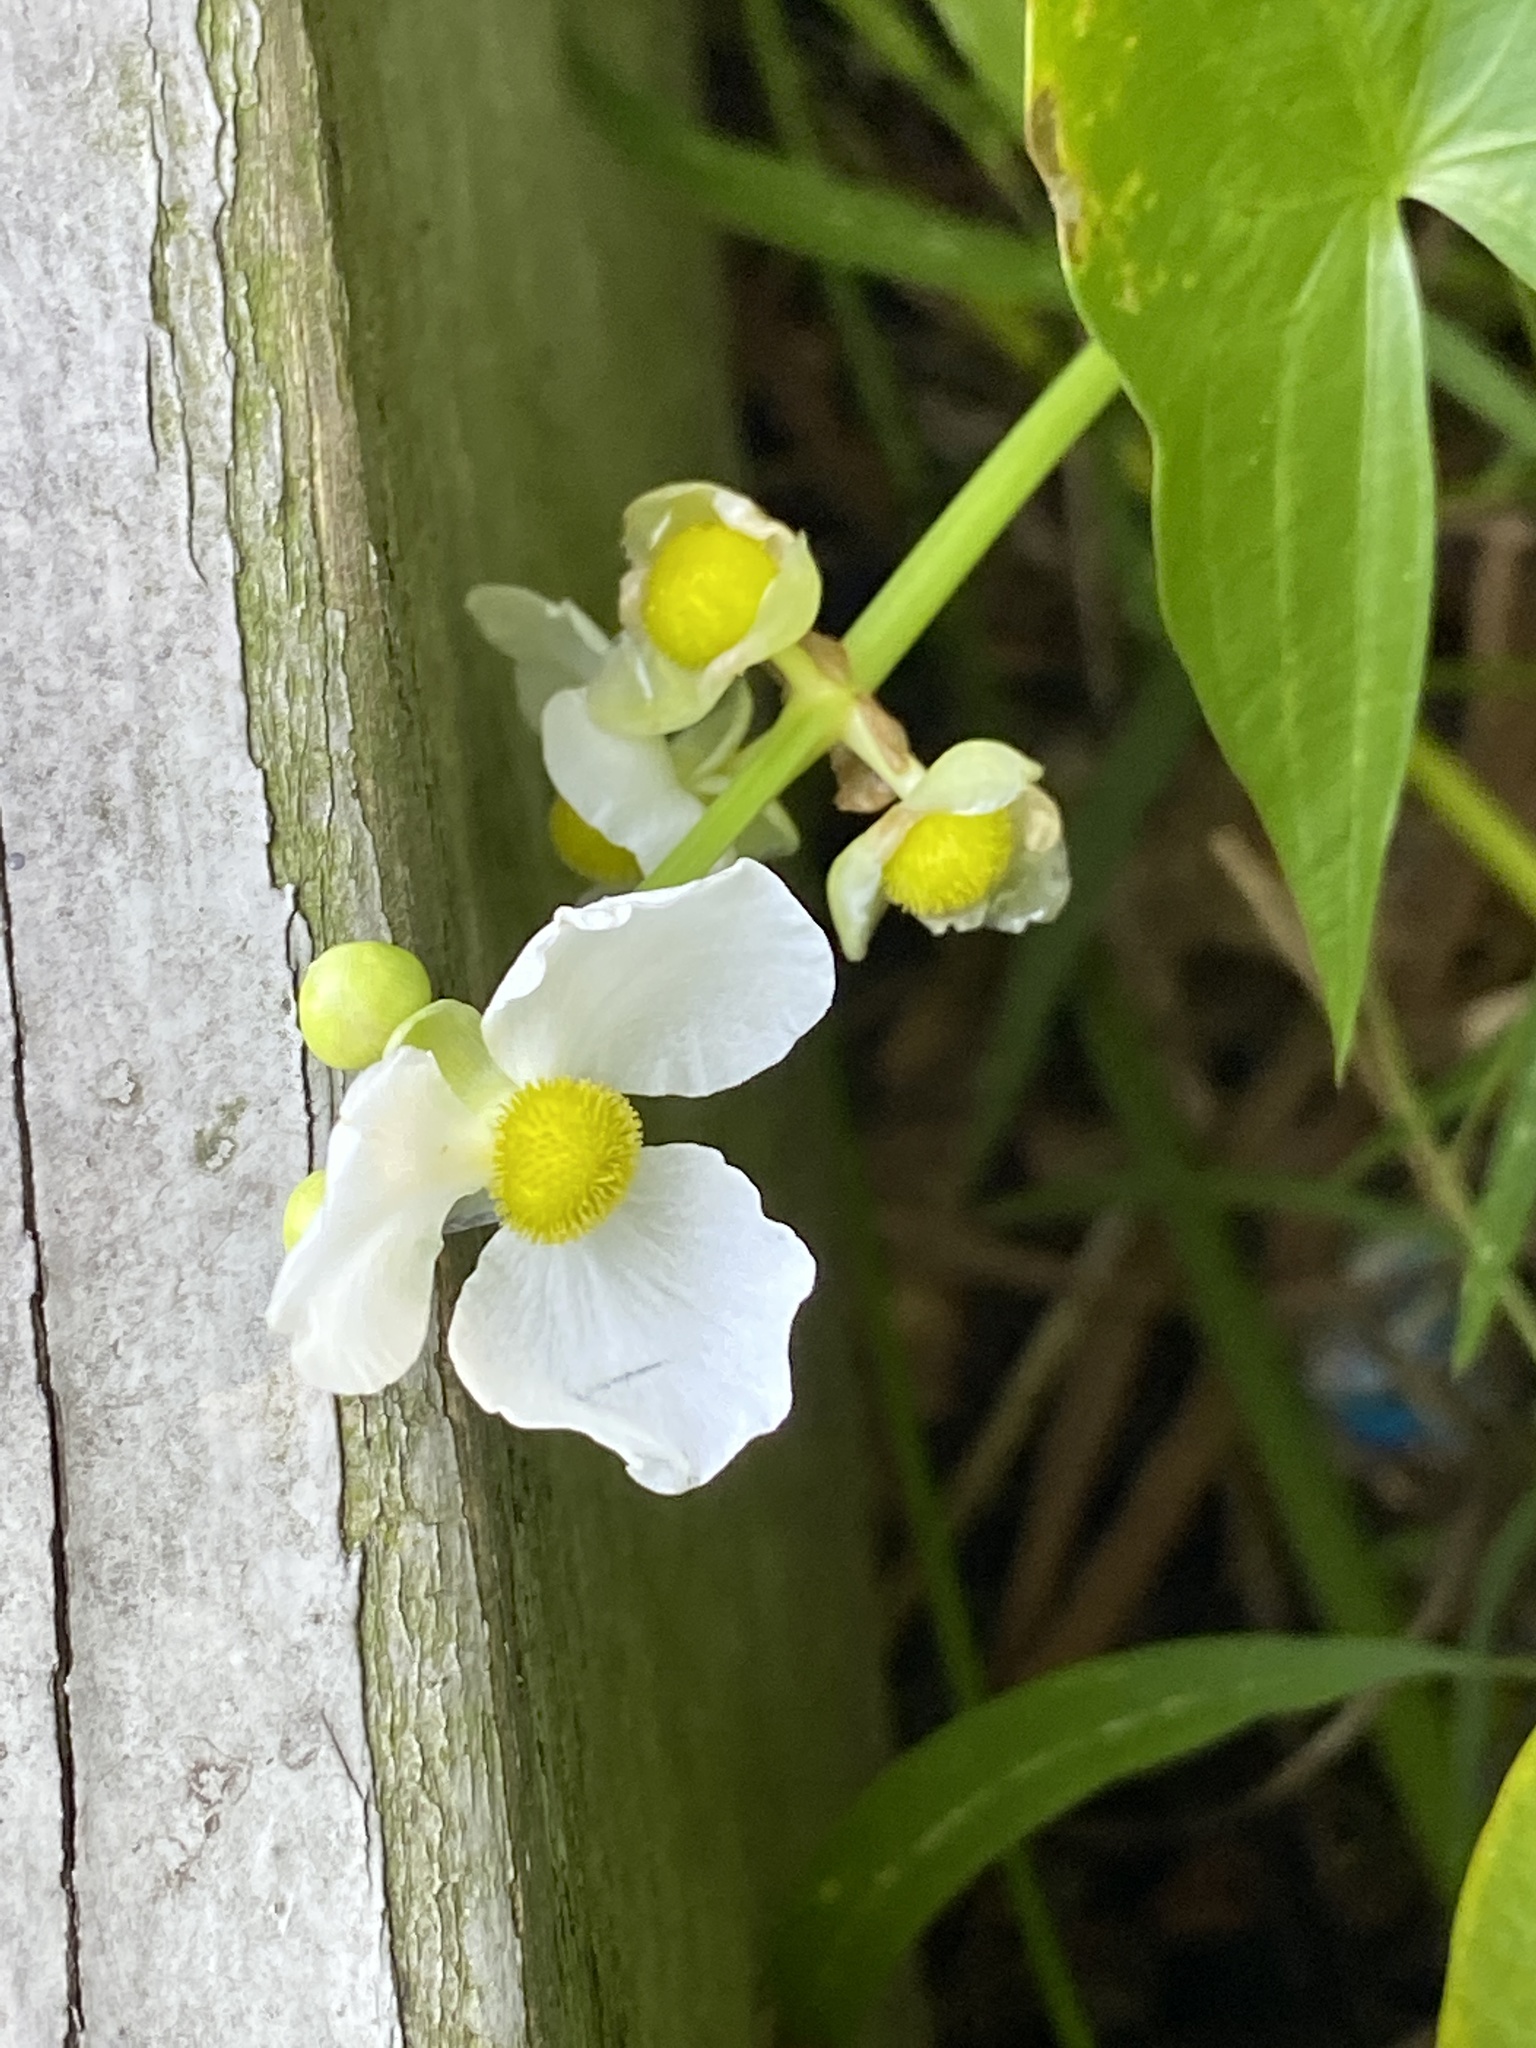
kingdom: Plantae
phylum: Tracheophyta
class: Liliopsida
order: Alismatales
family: Alismataceae
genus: Sagittaria
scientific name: Sagittaria latifolia
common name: Duck-potato
